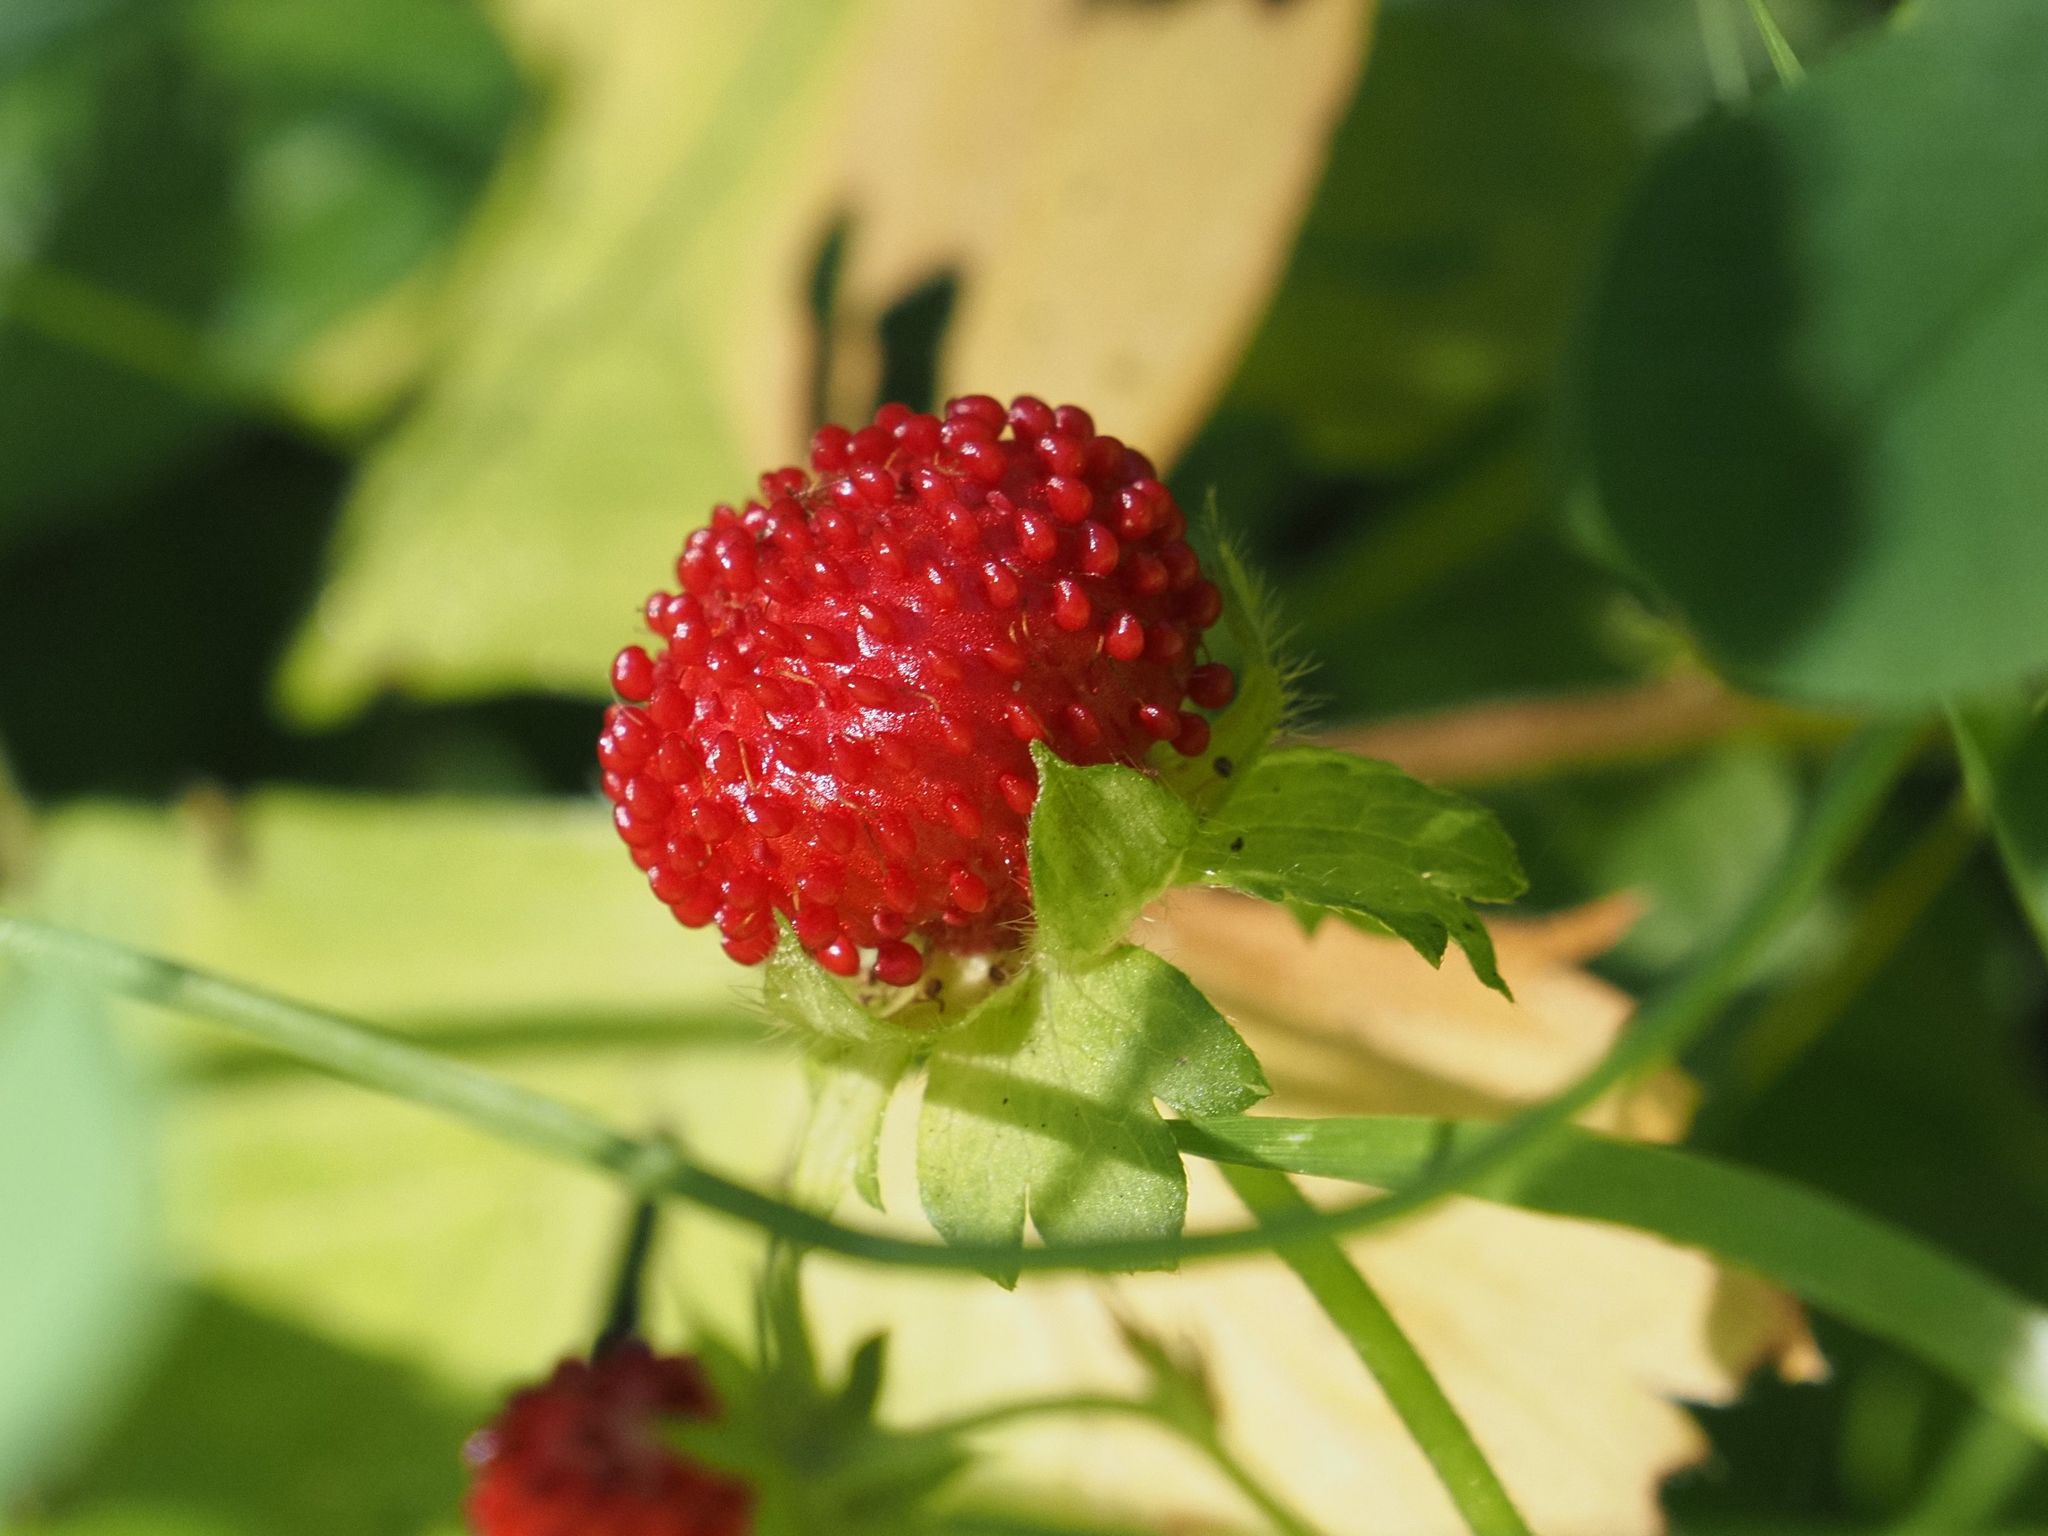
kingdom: Plantae
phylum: Tracheophyta
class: Magnoliopsida
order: Rosales
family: Rosaceae
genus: Potentilla
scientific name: Potentilla indica
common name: Yellow-flowered strawberry
